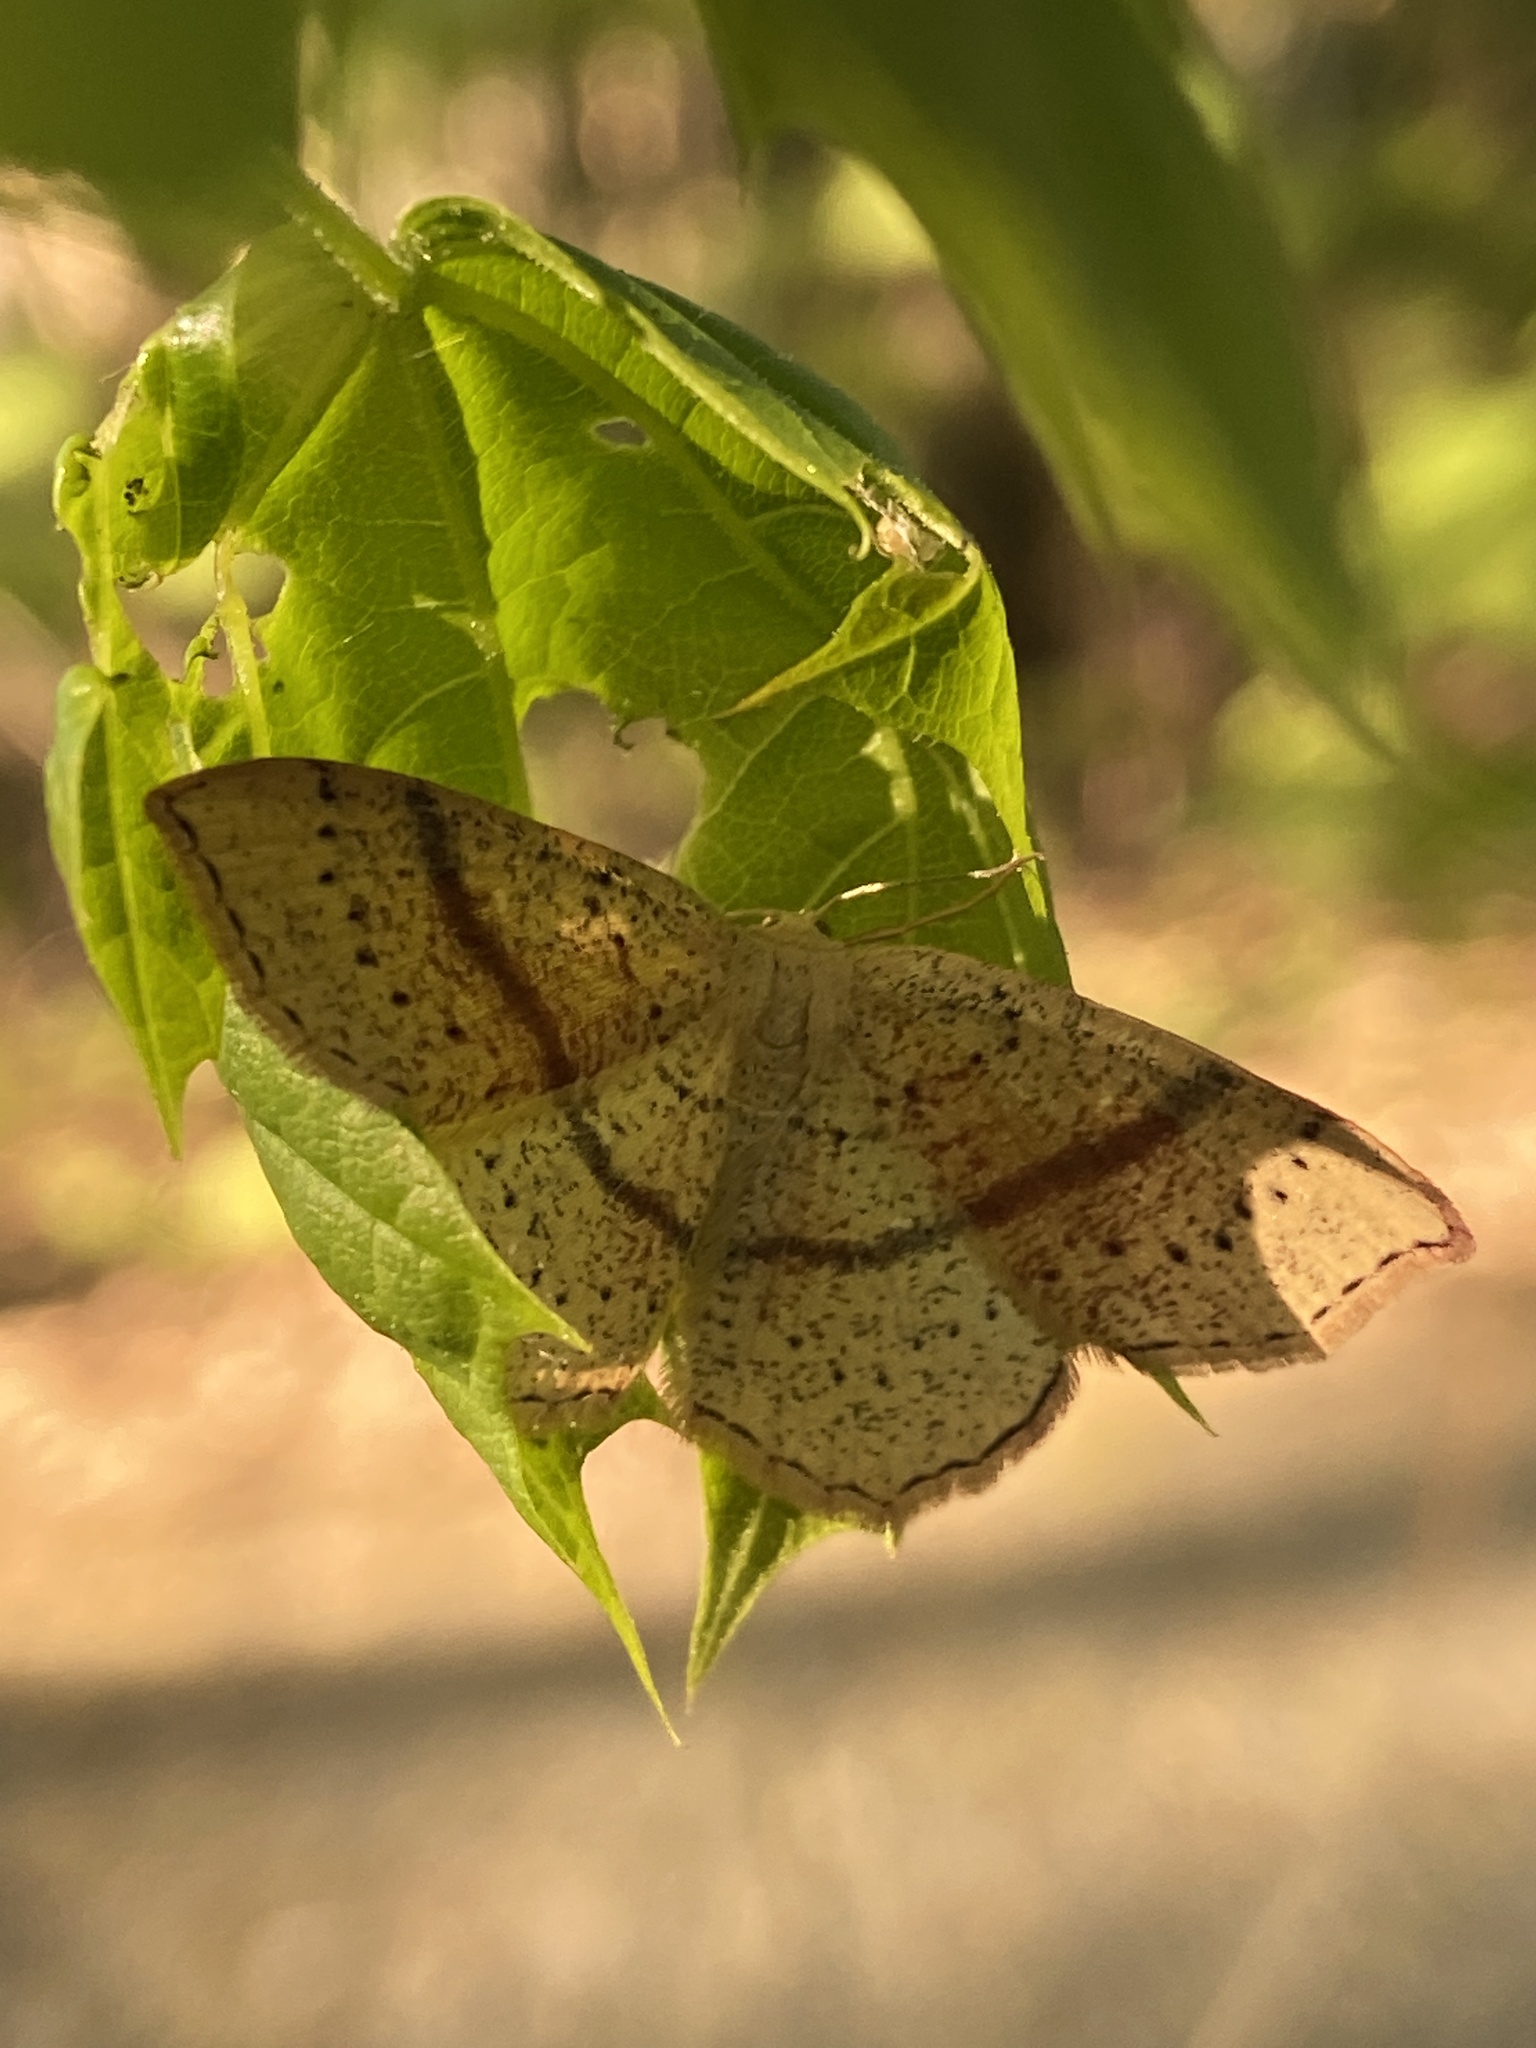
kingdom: Animalia
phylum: Arthropoda
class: Insecta
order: Lepidoptera
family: Geometridae
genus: Cyclophora
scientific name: Cyclophora punctaria
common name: Maiden's blush
